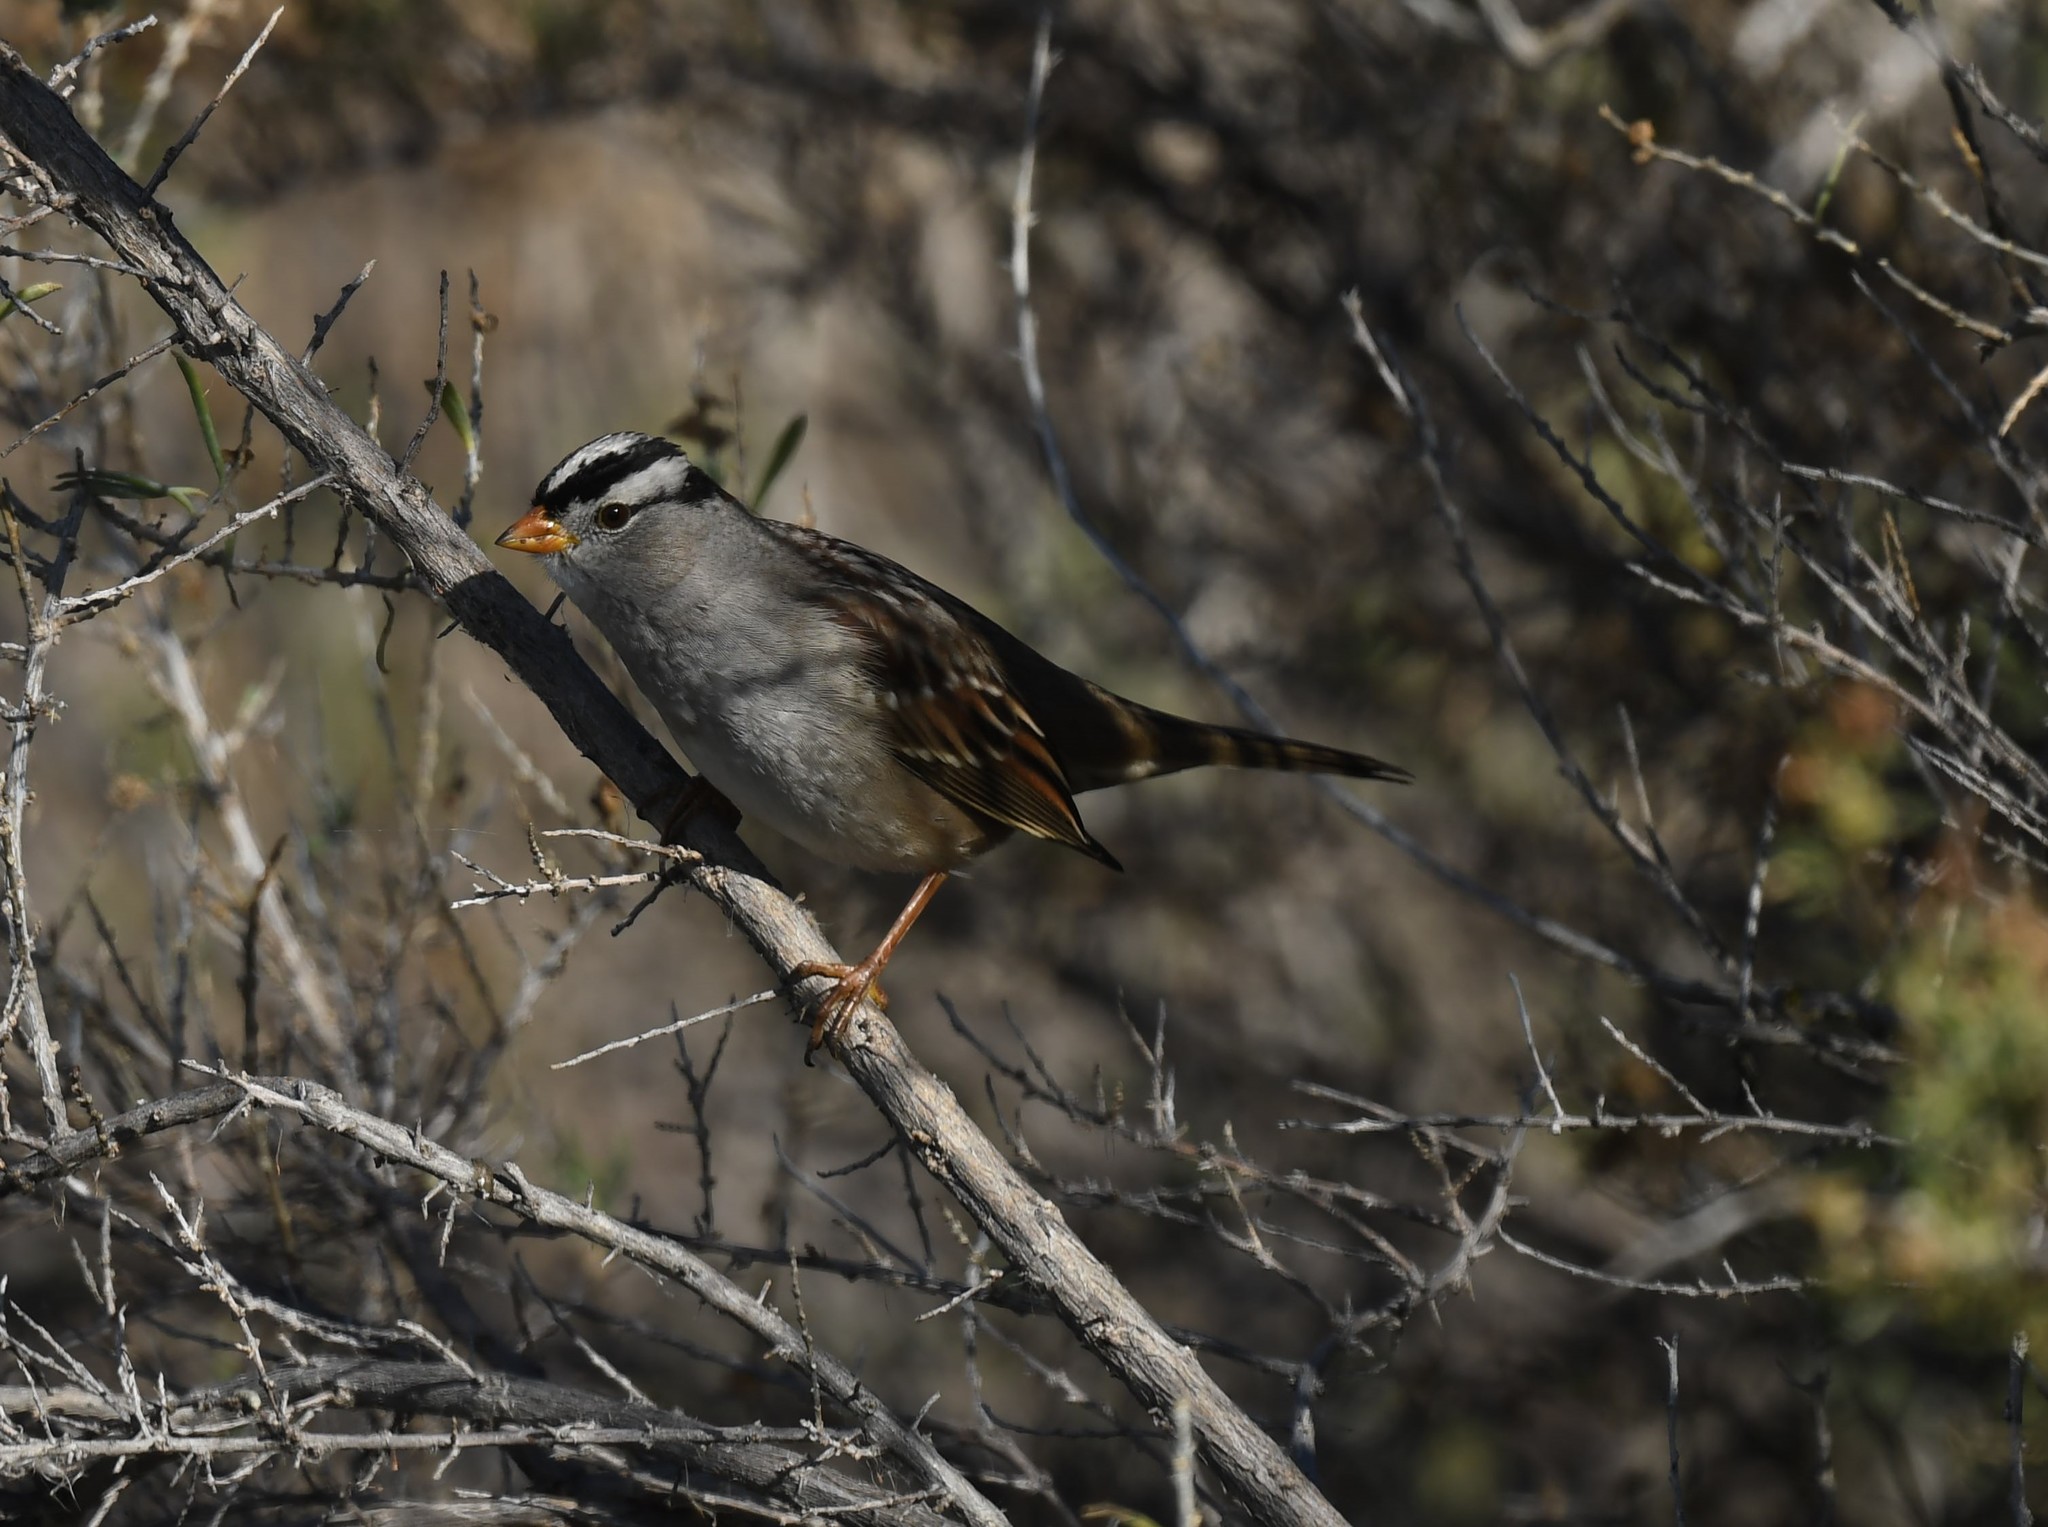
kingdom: Animalia
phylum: Chordata
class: Aves
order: Passeriformes
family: Passerellidae
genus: Zonotrichia
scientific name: Zonotrichia leucophrys
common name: White-crowned sparrow
